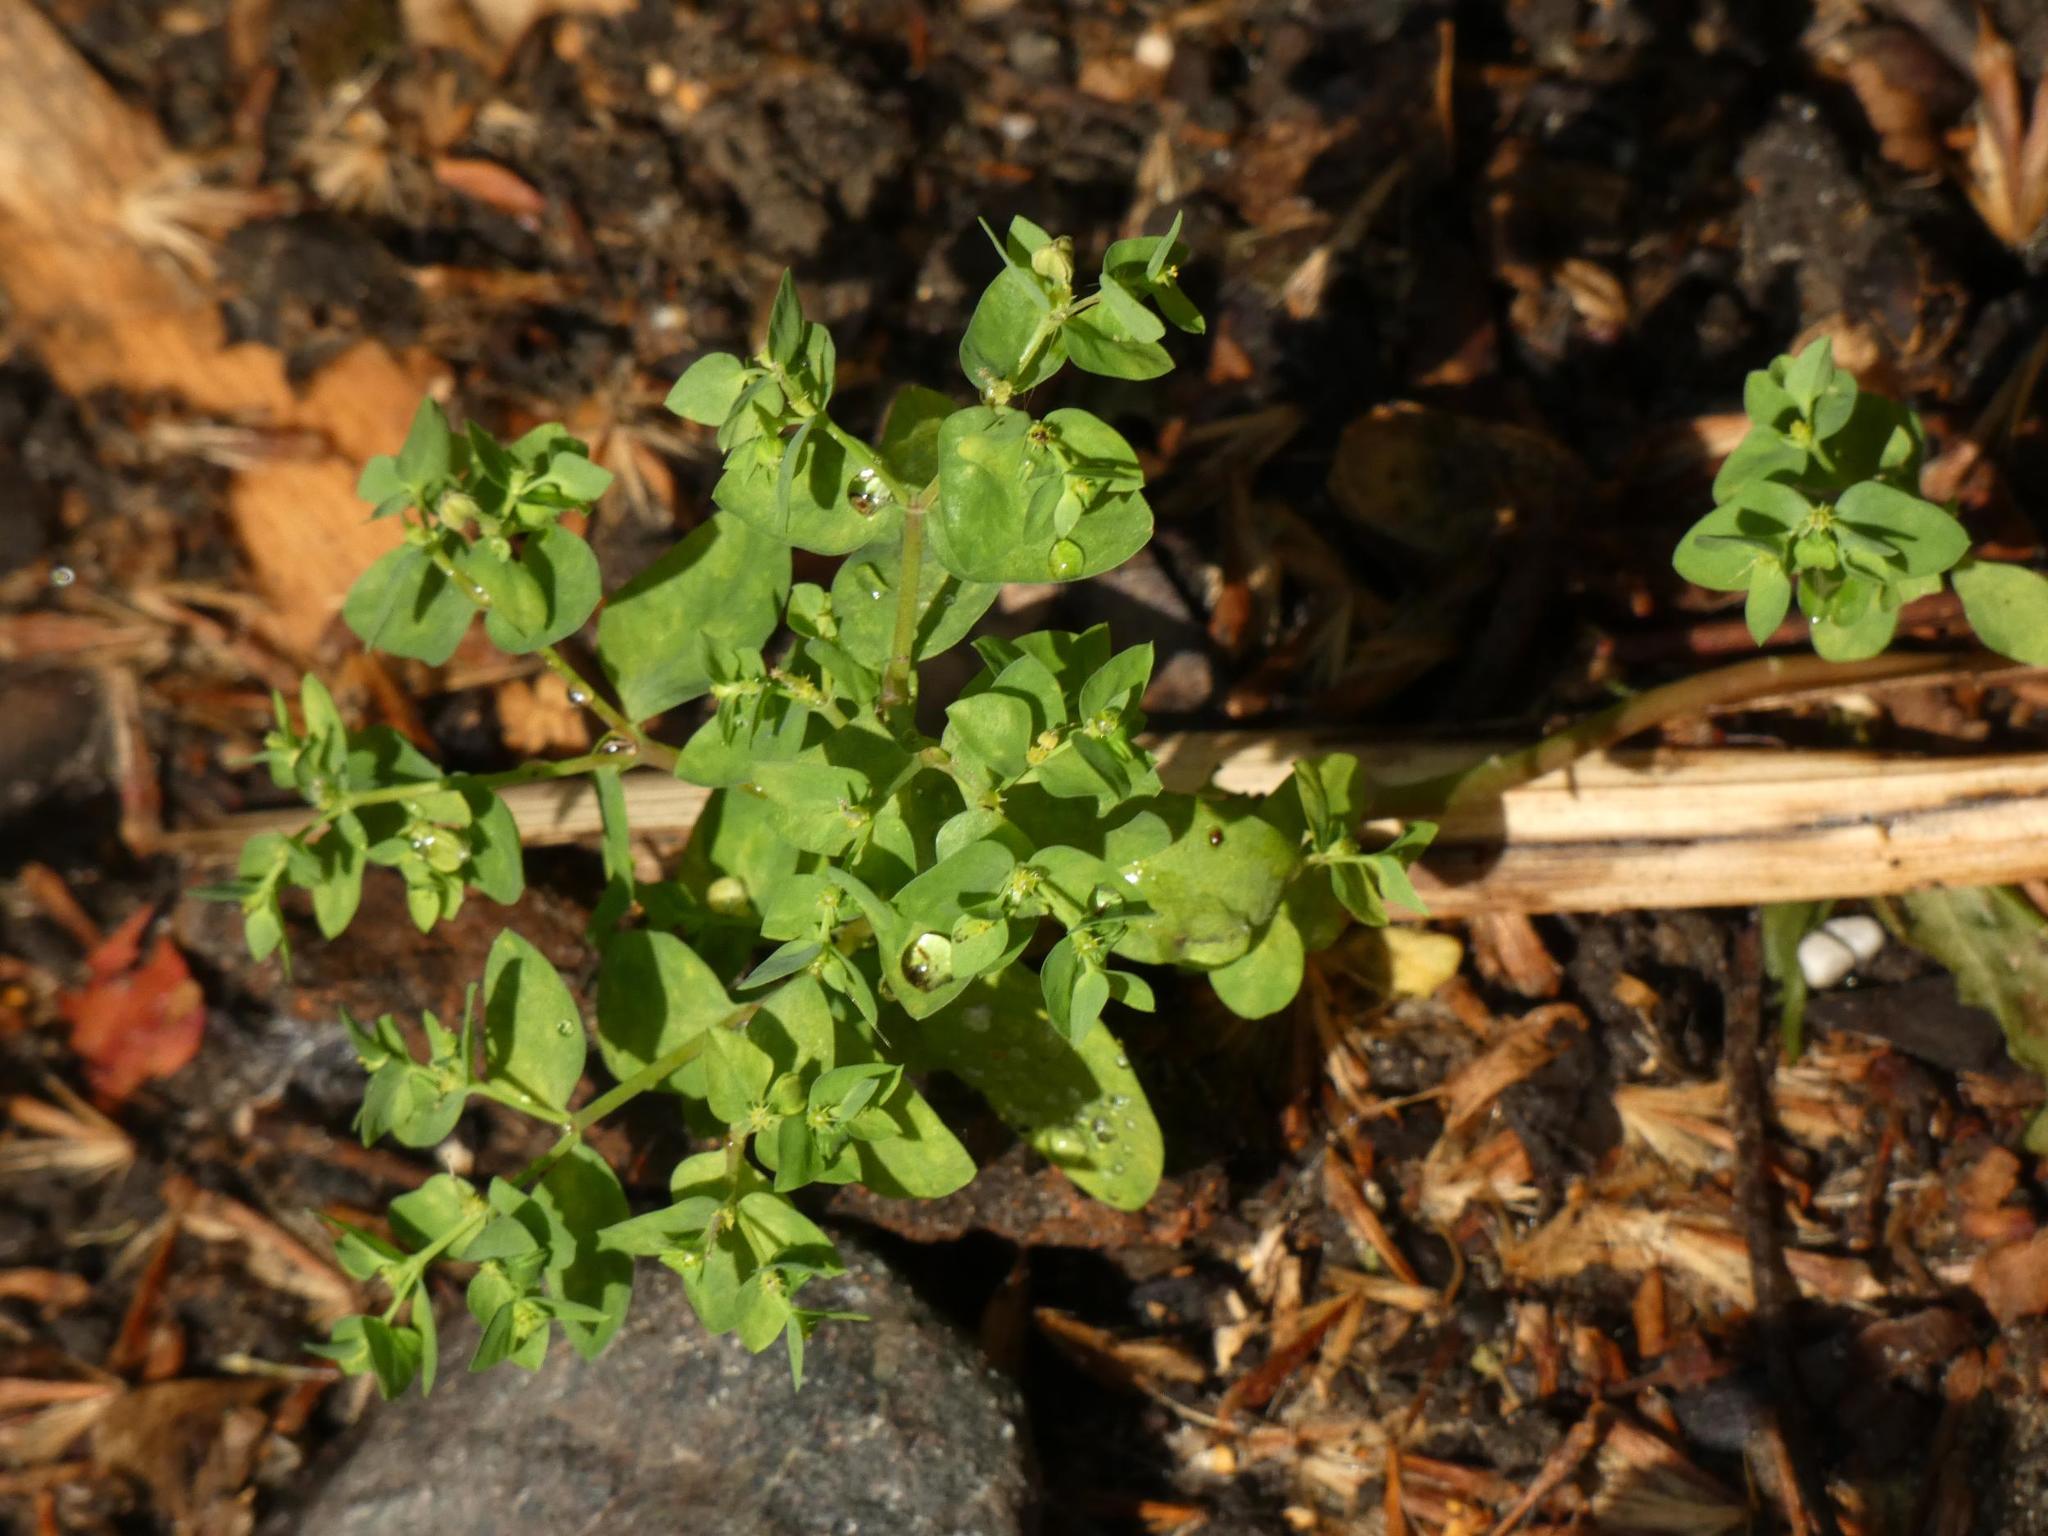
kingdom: Plantae
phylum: Tracheophyta
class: Magnoliopsida
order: Malpighiales
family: Euphorbiaceae
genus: Euphorbia
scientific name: Euphorbia peplus
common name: Petty spurge
